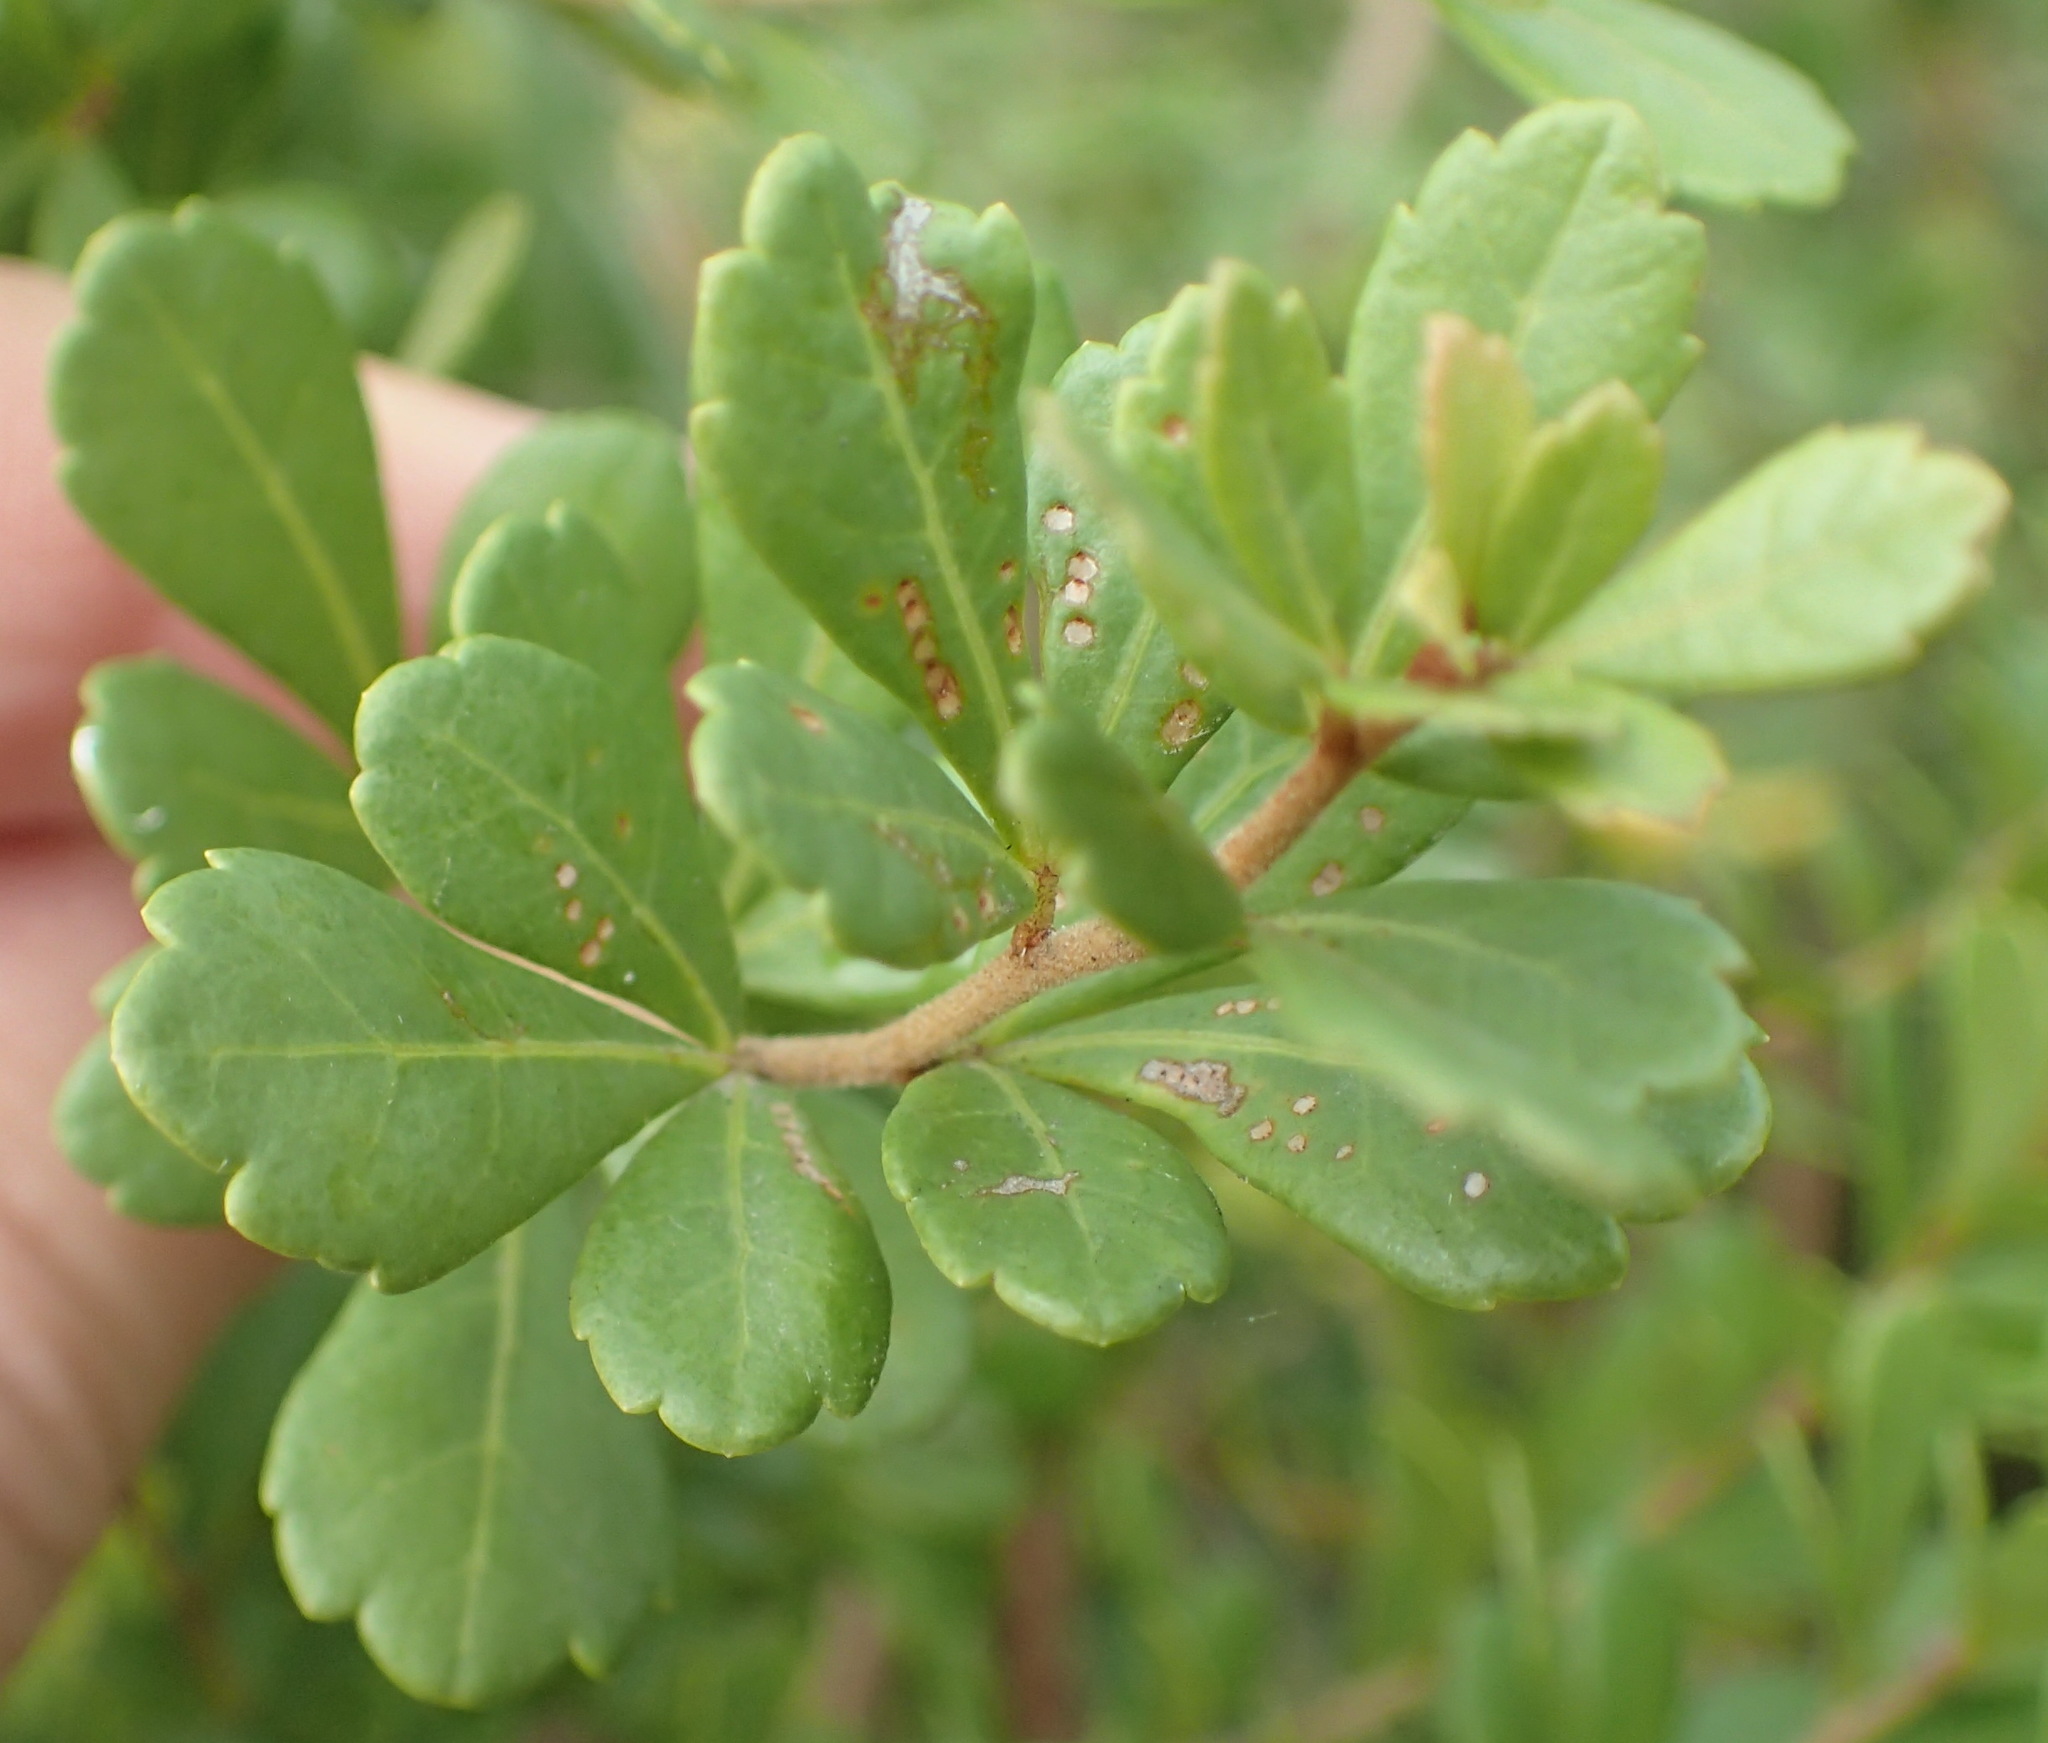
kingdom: Plantae
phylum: Tracheophyta
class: Magnoliopsida
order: Sapindales
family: Anacardiaceae
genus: Searsia
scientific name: Searsia crenata
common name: Crowberry
